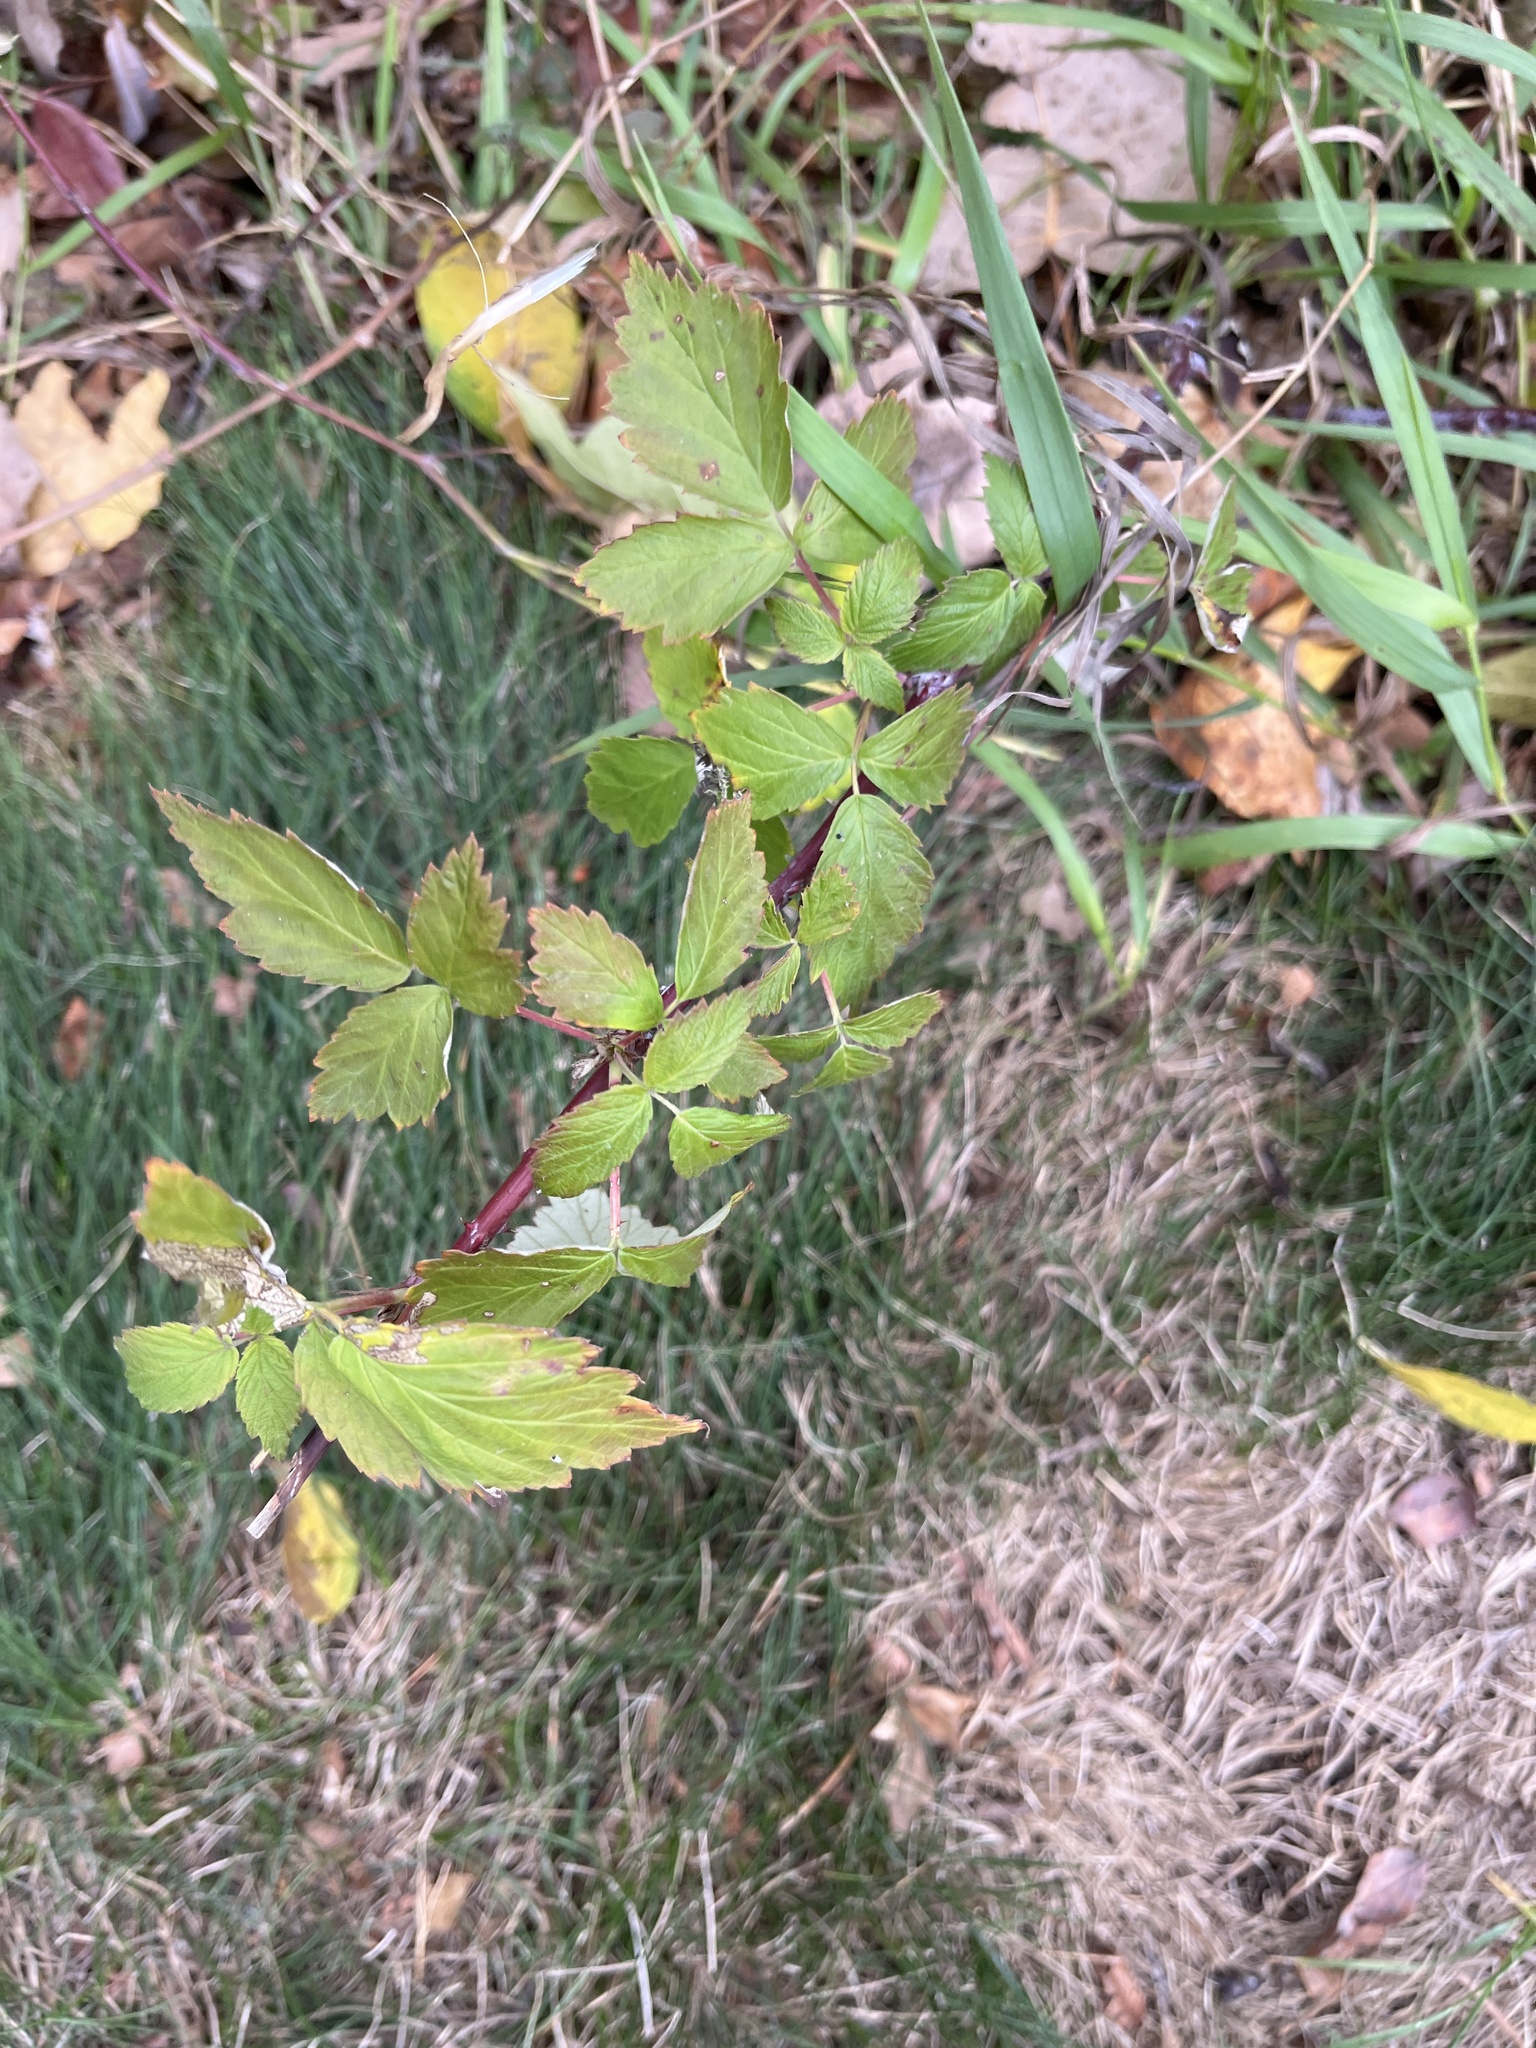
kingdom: Plantae
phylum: Tracheophyta
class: Magnoliopsida
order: Rosales
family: Rosaceae
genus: Rubus
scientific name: Rubus occidentalis
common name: Black raspberry
